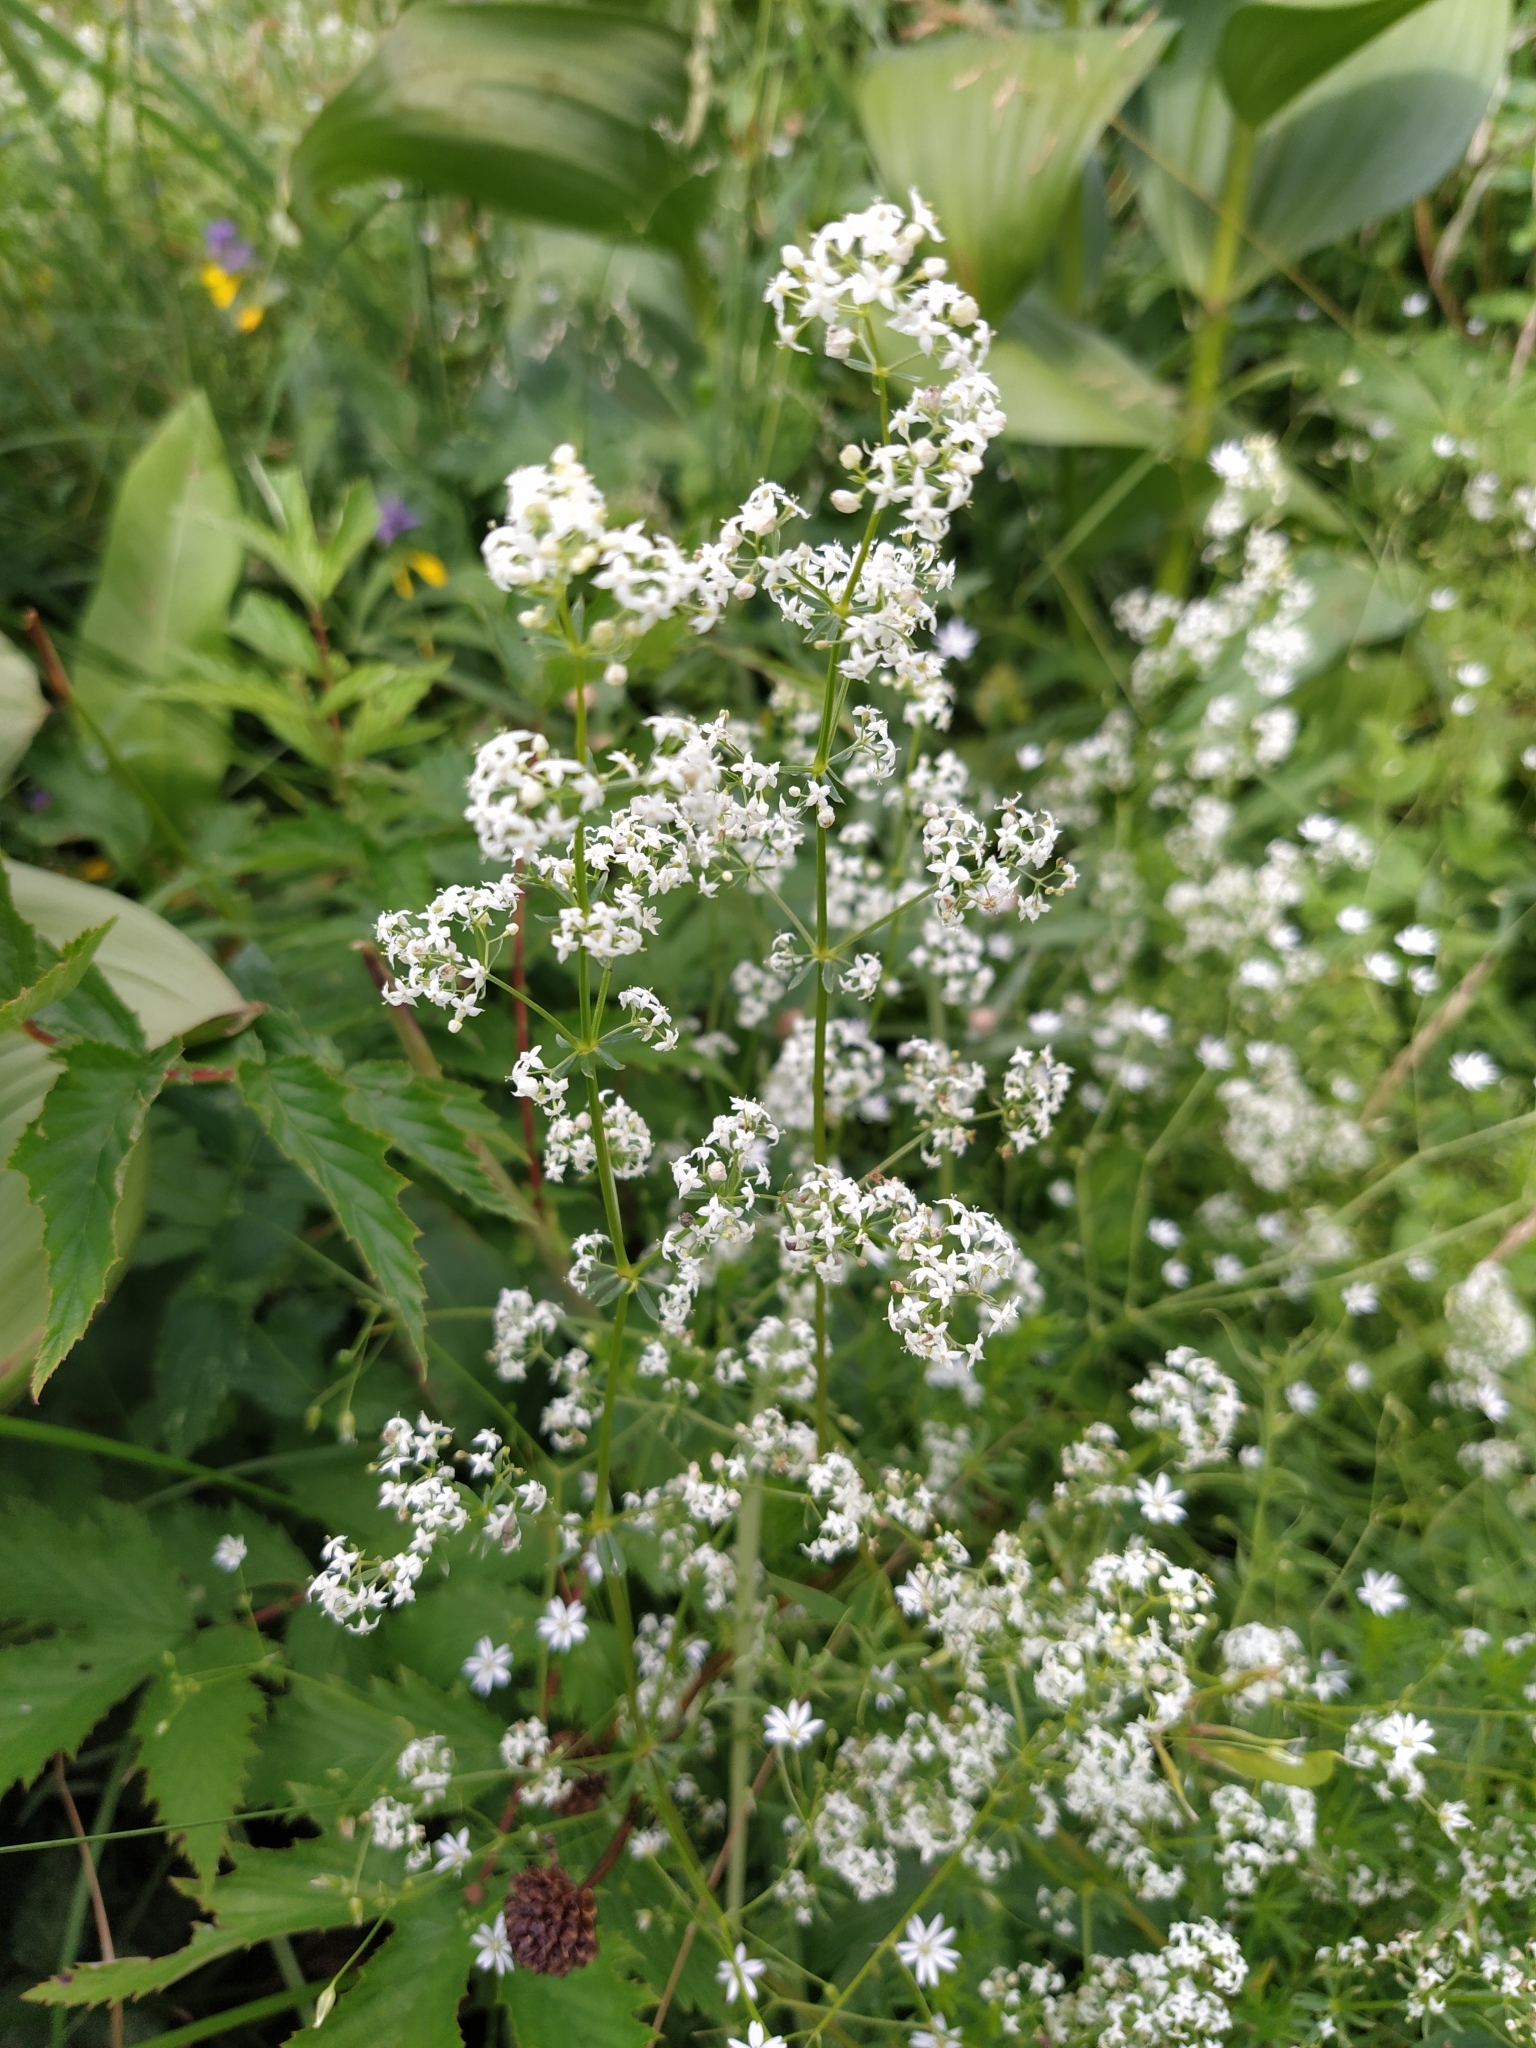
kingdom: Plantae
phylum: Tracheophyta
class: Magnoliopsida
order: Gentianales
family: Rubiaceae
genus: Galium
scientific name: Galium mollugo
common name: Hedge bedstraw
